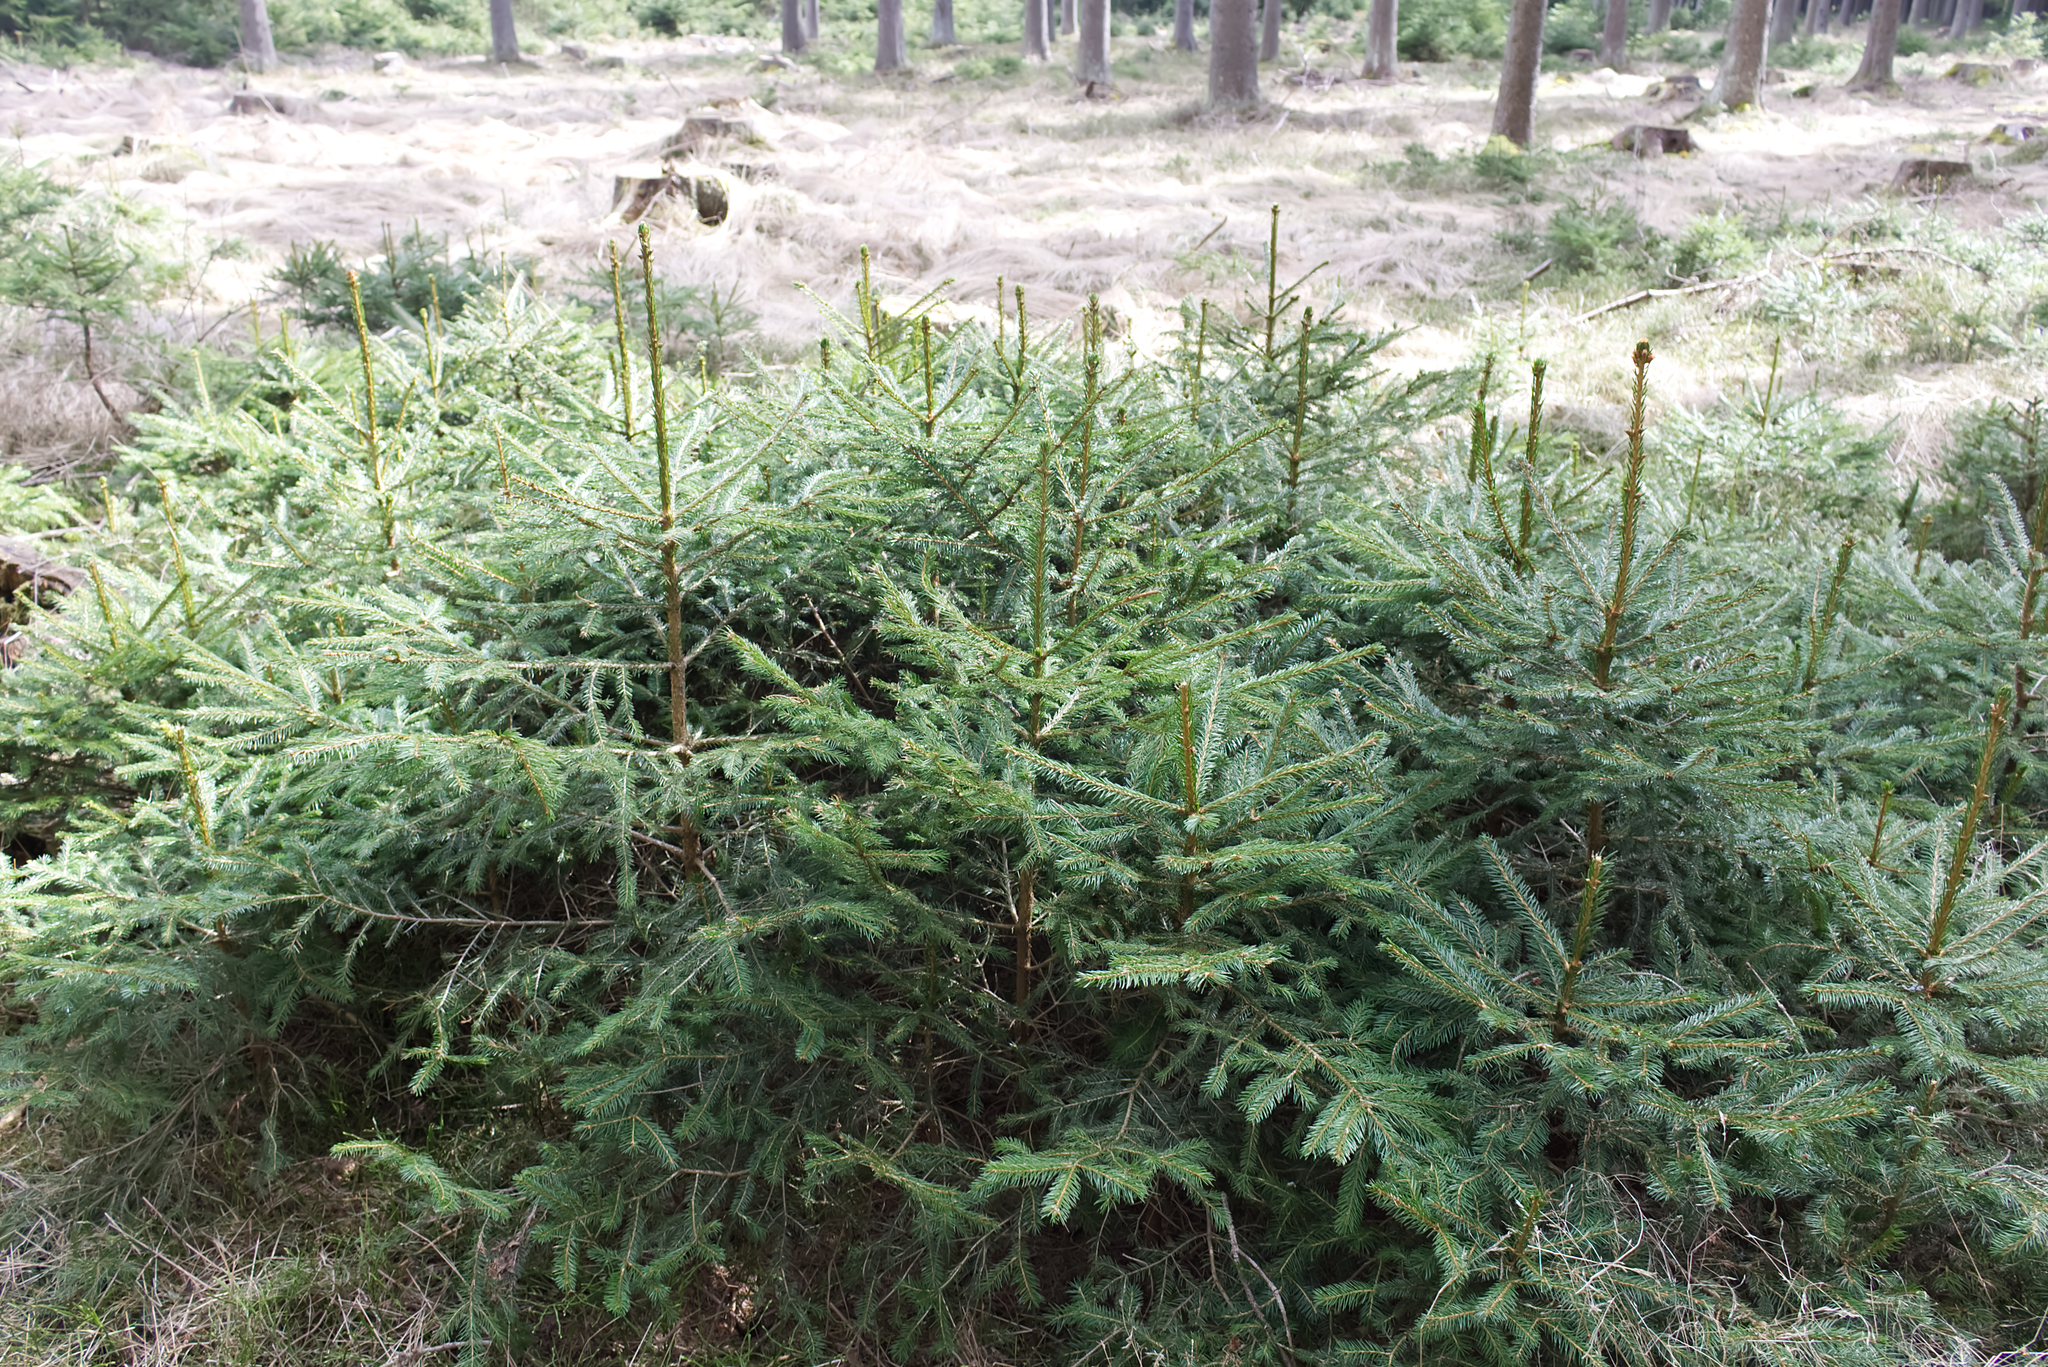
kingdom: Plantae
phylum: Tracheophyta
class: Pinopsida
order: Pinales
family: Pinaceae
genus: Picea
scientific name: Picea abies
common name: Norway spruce
